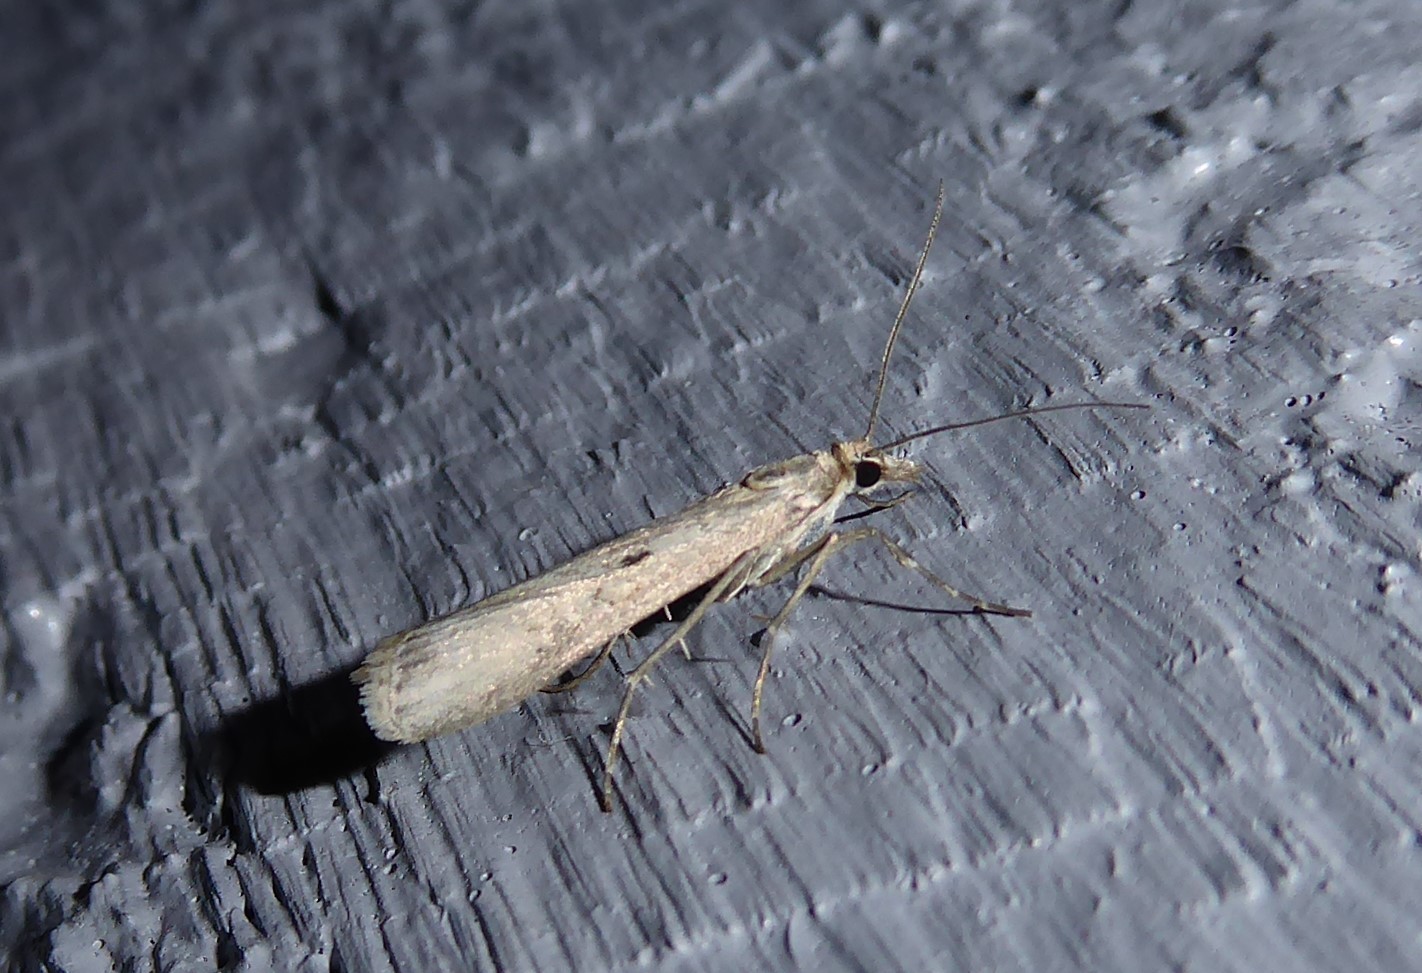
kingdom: Animalia
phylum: Arthropoda
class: Insecta
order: Lepidoptera
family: Crambidae
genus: Eudonia
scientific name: Eudonia leptalea
